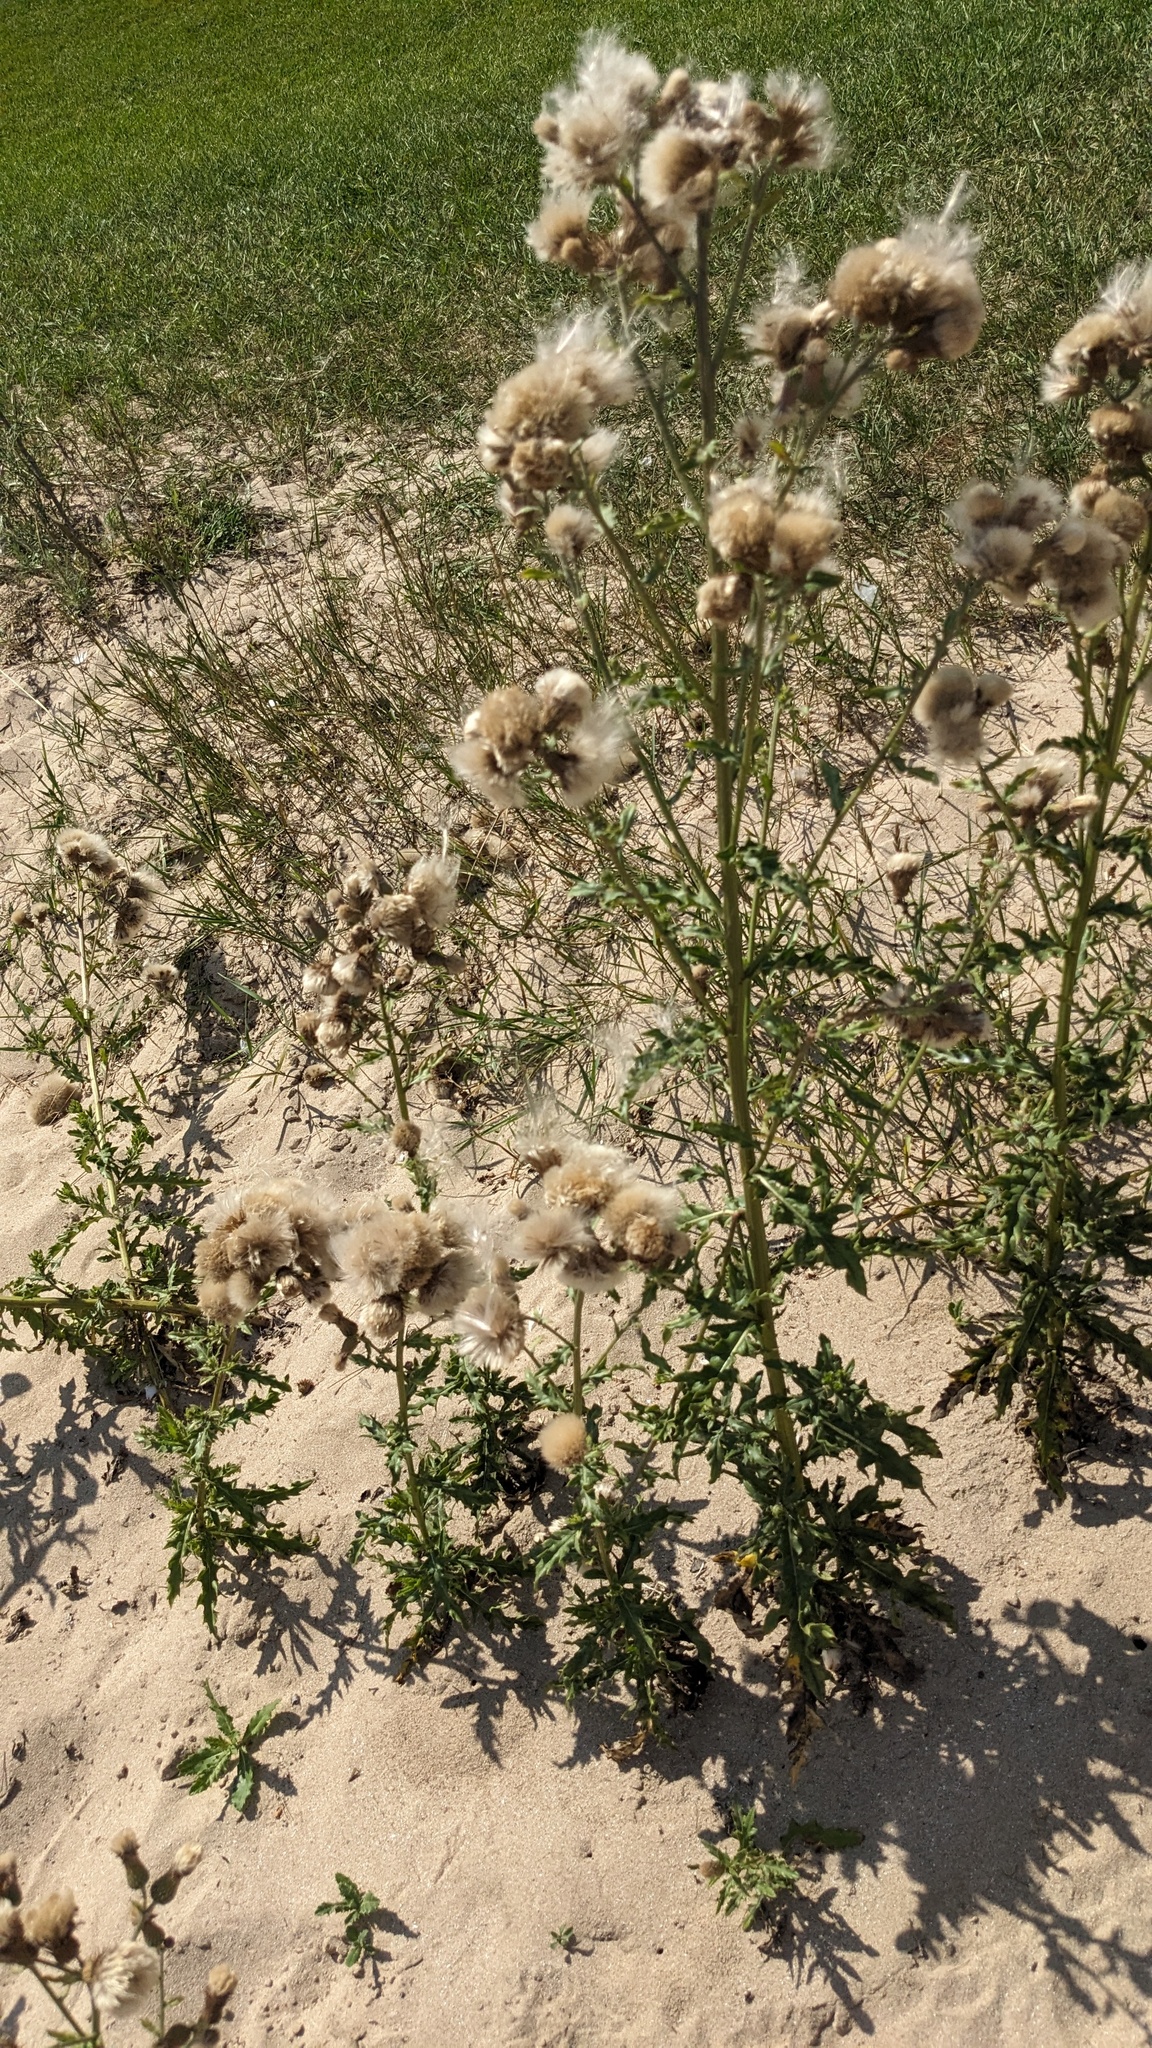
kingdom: Plantae
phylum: Tracheophyta
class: Magnoliopsida
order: Asterales
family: Asteraceae
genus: Cirsium
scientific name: Cirsium arvense
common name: Creeping thistle
